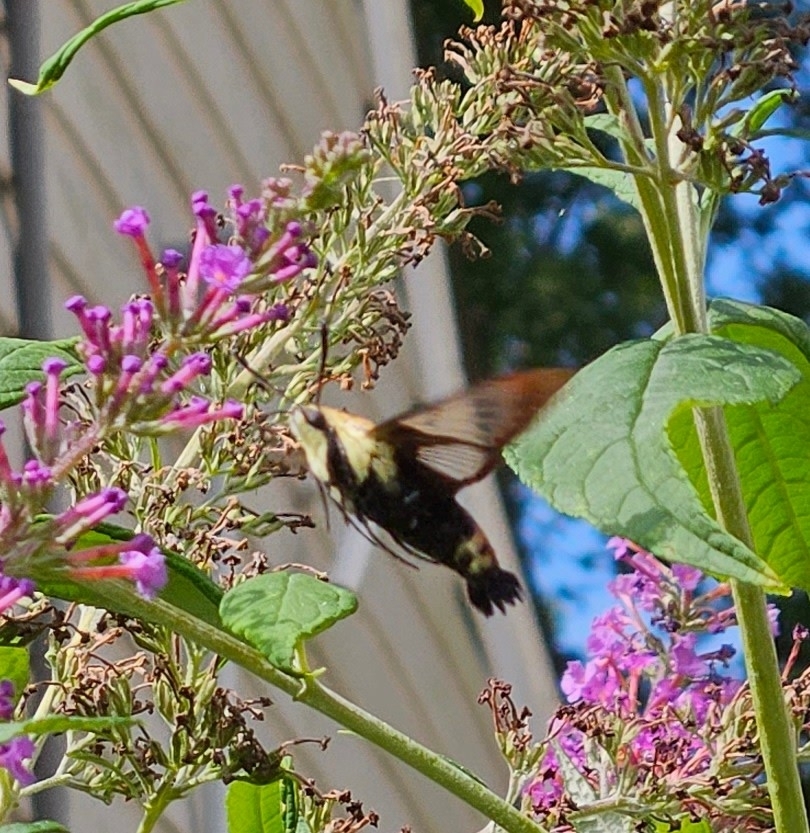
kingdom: Animalia
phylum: Arthropoda
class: Insecta
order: Lepidoptera
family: Sphingidae
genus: Hemaris
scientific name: Hemaris diffinis
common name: Bumblebee moth
